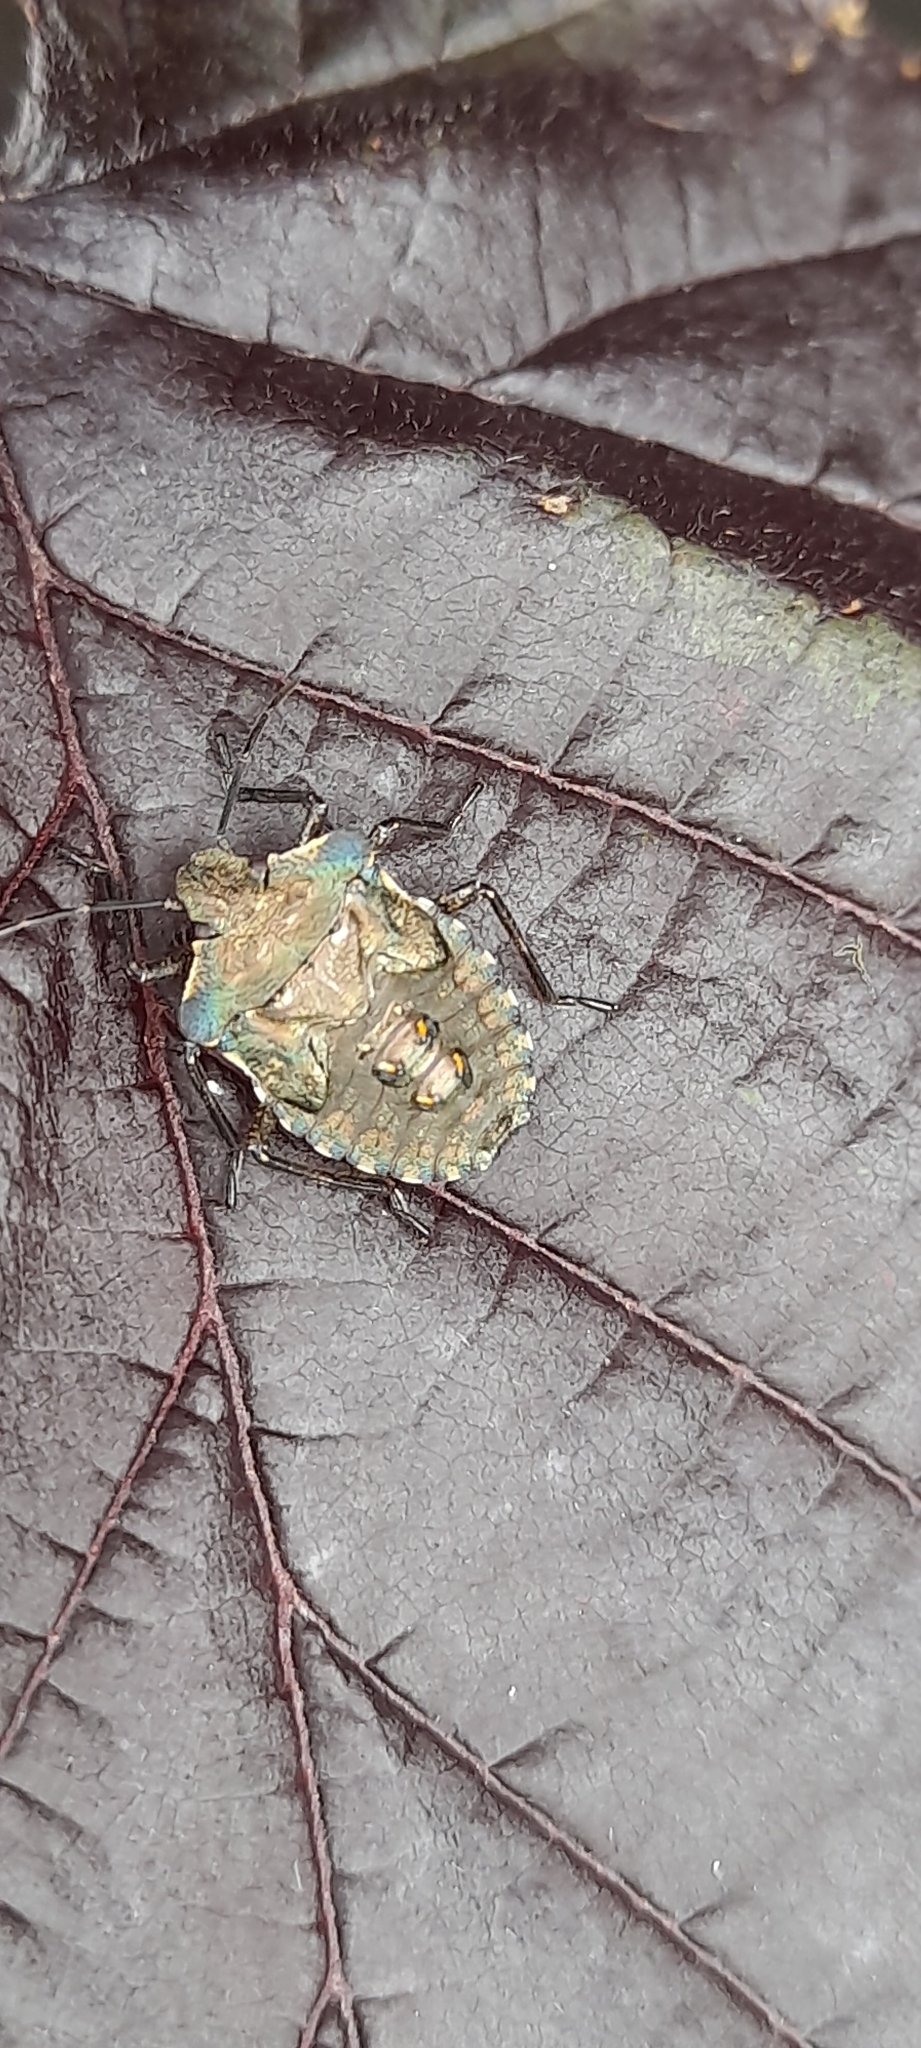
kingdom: Animalia
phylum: Arthropoda
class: Insecta
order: Hemiptera
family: Pentatomidae
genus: Pentatoma
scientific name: Pentatoma rufipes
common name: Forest bug
